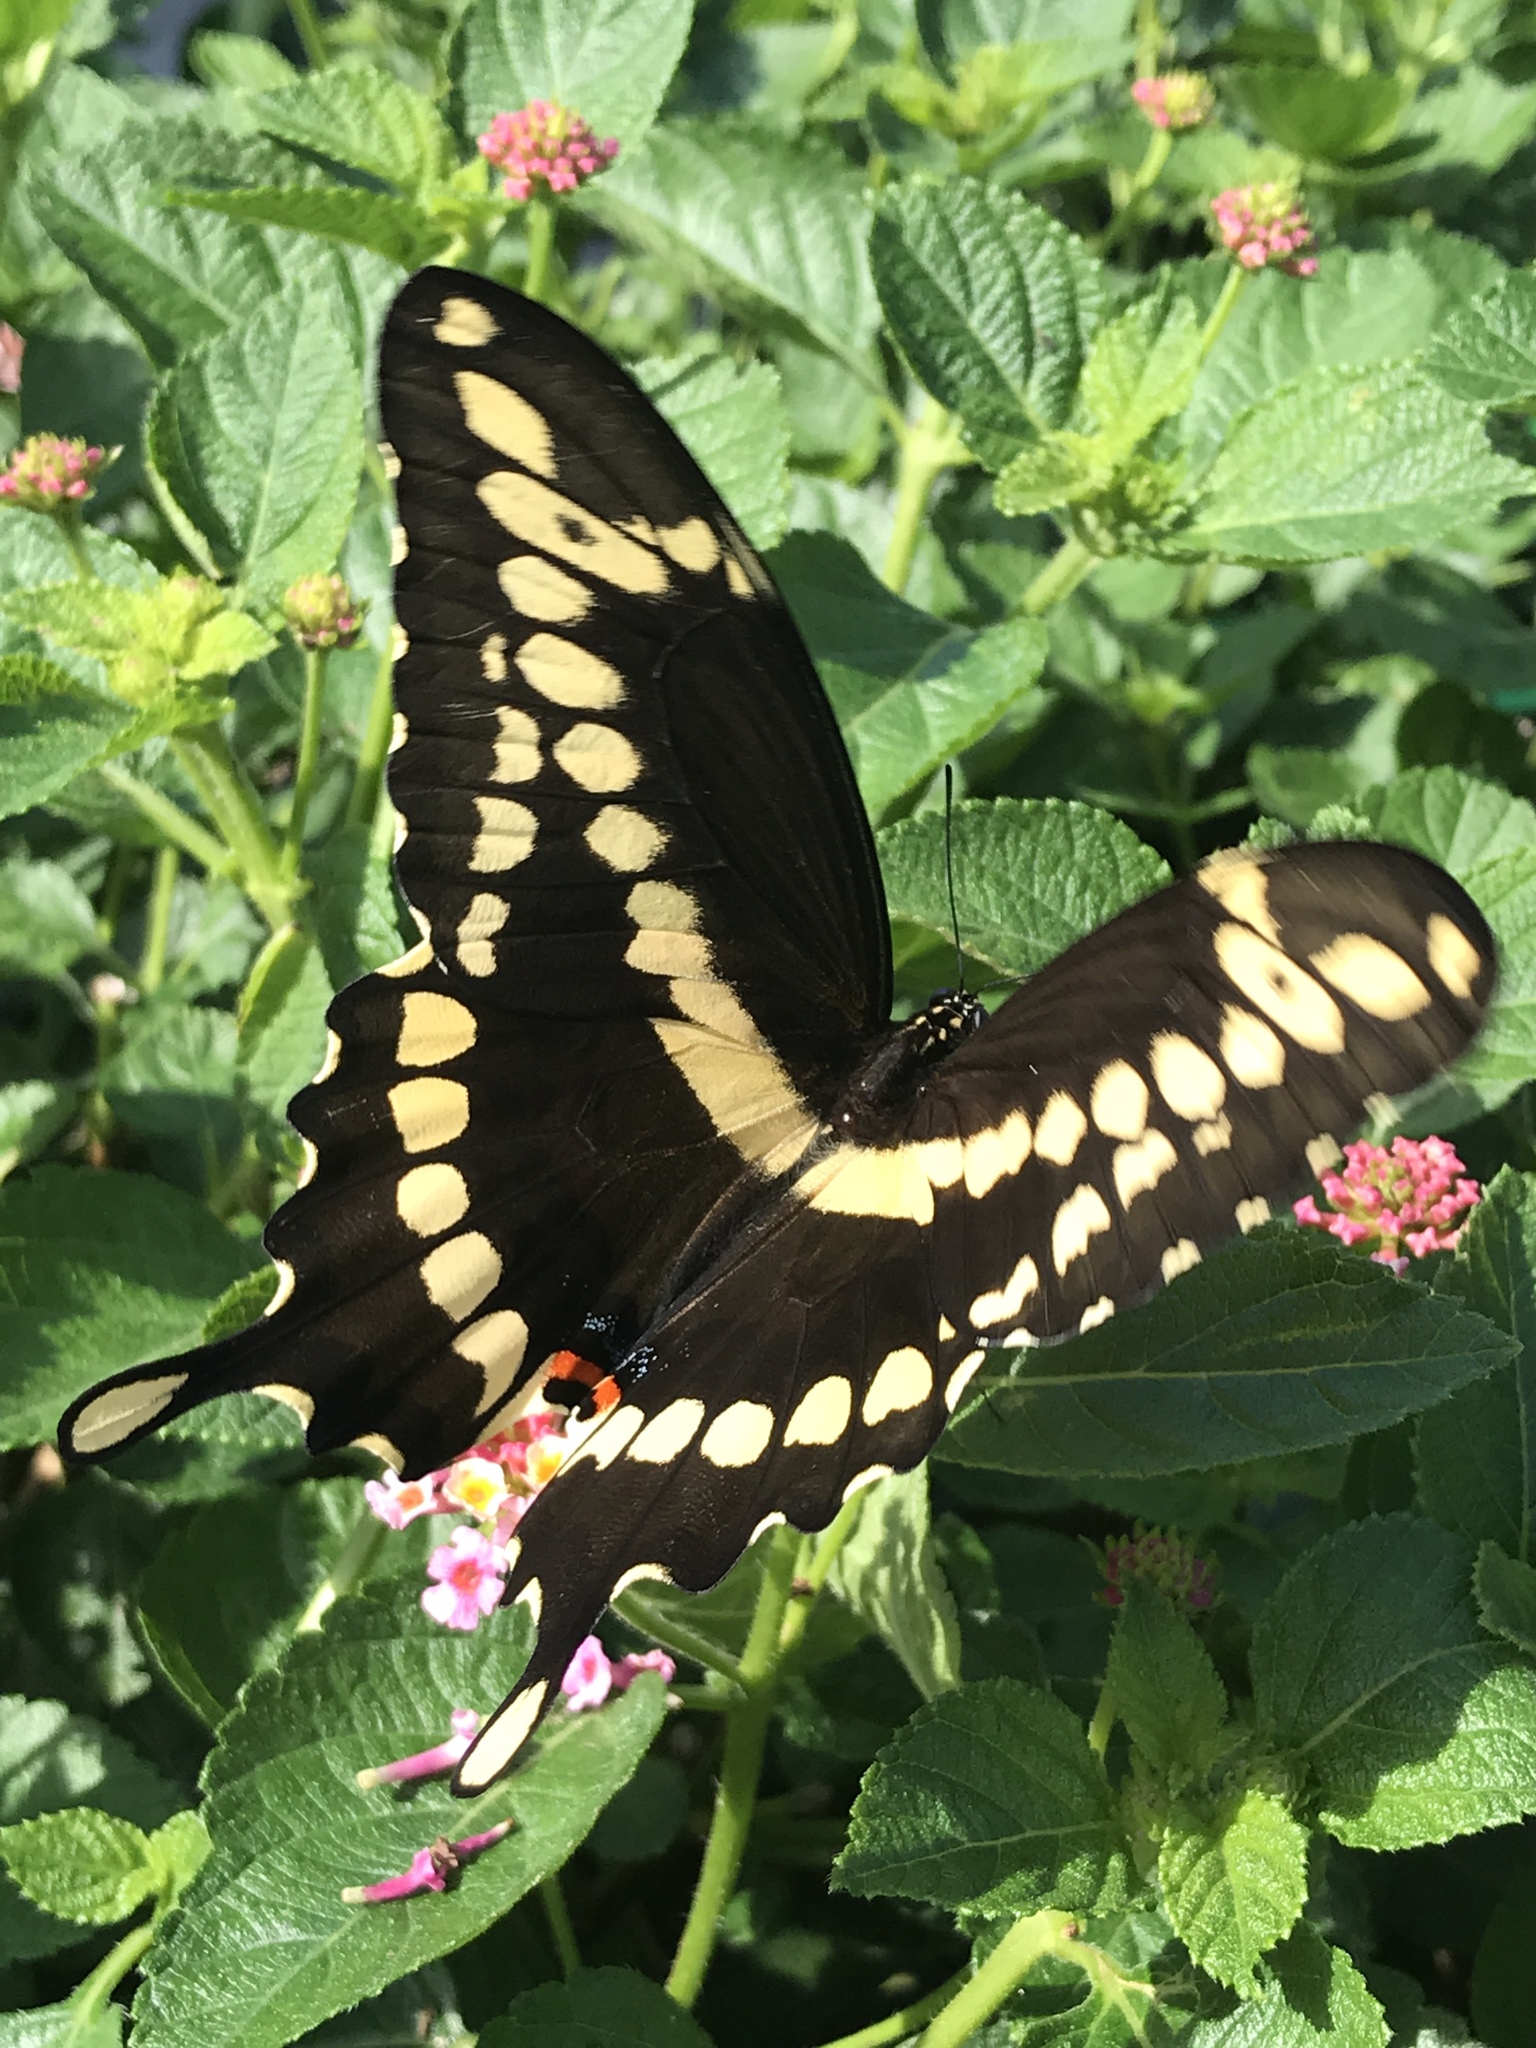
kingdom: Animalia
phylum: Arthropoda
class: Insecta
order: Lepidoptera
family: Papilionidae
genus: Papilio
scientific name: Papilio cresphontes
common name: Giant swallowtail
